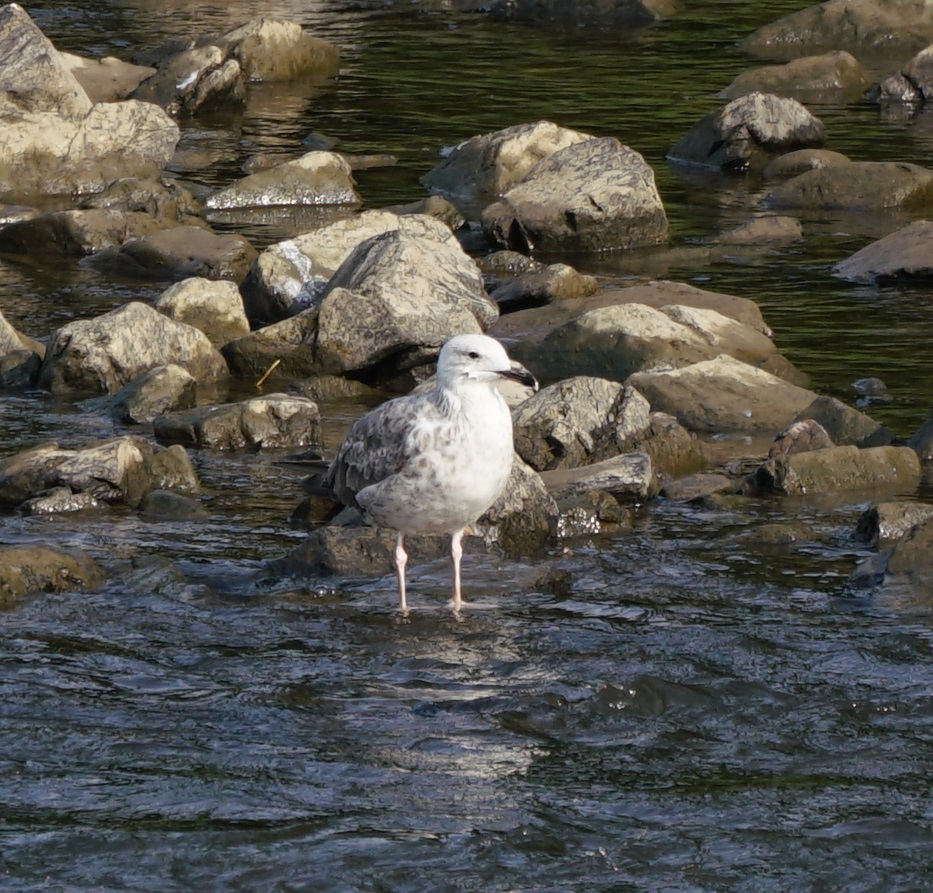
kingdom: Animalia
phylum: Chordata
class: Aves
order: Charadriiformes
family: Laridae
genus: Larus
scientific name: Larus cachinnans
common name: Caspian gull
